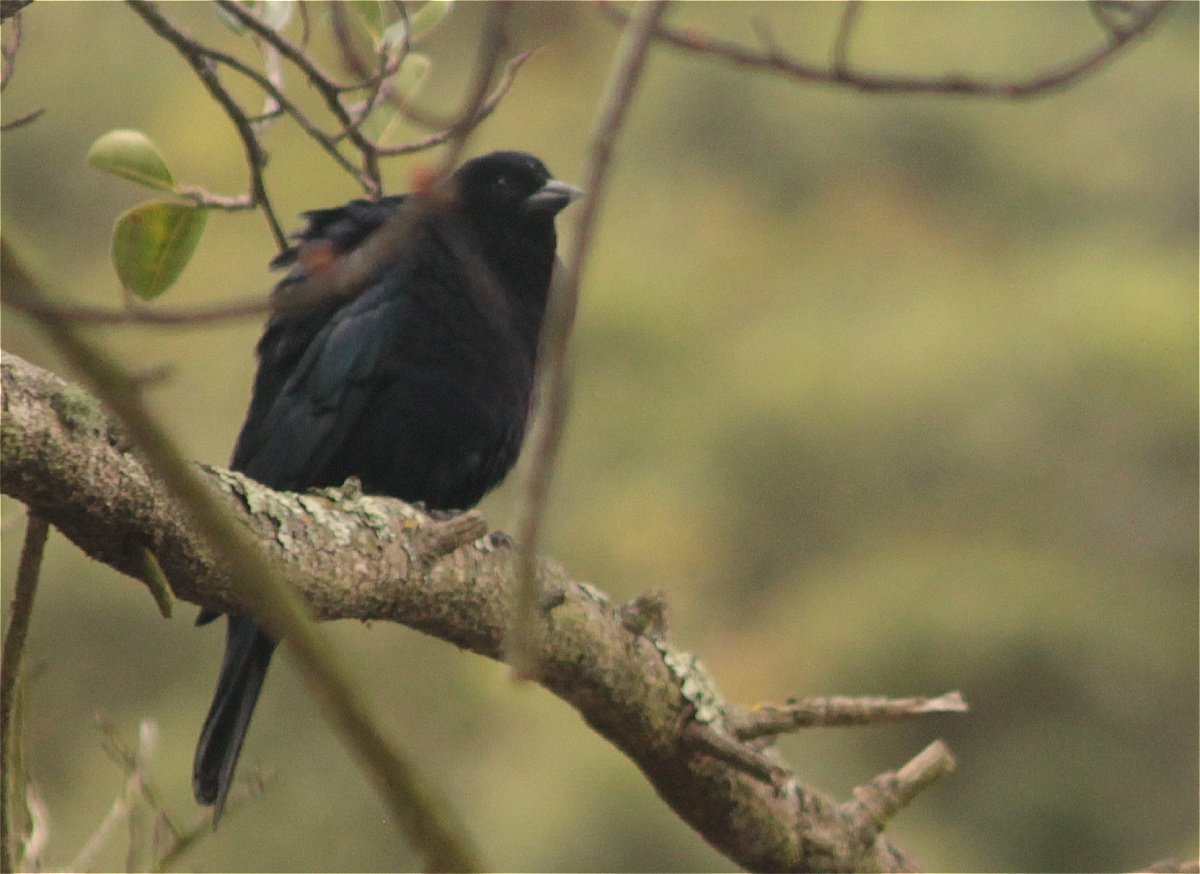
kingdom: Animalia
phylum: Chordata
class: Aves
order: Passeriformes
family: Icteridae
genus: Molothrus
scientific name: Molothrus bonariensis
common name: Shiny cowbird
